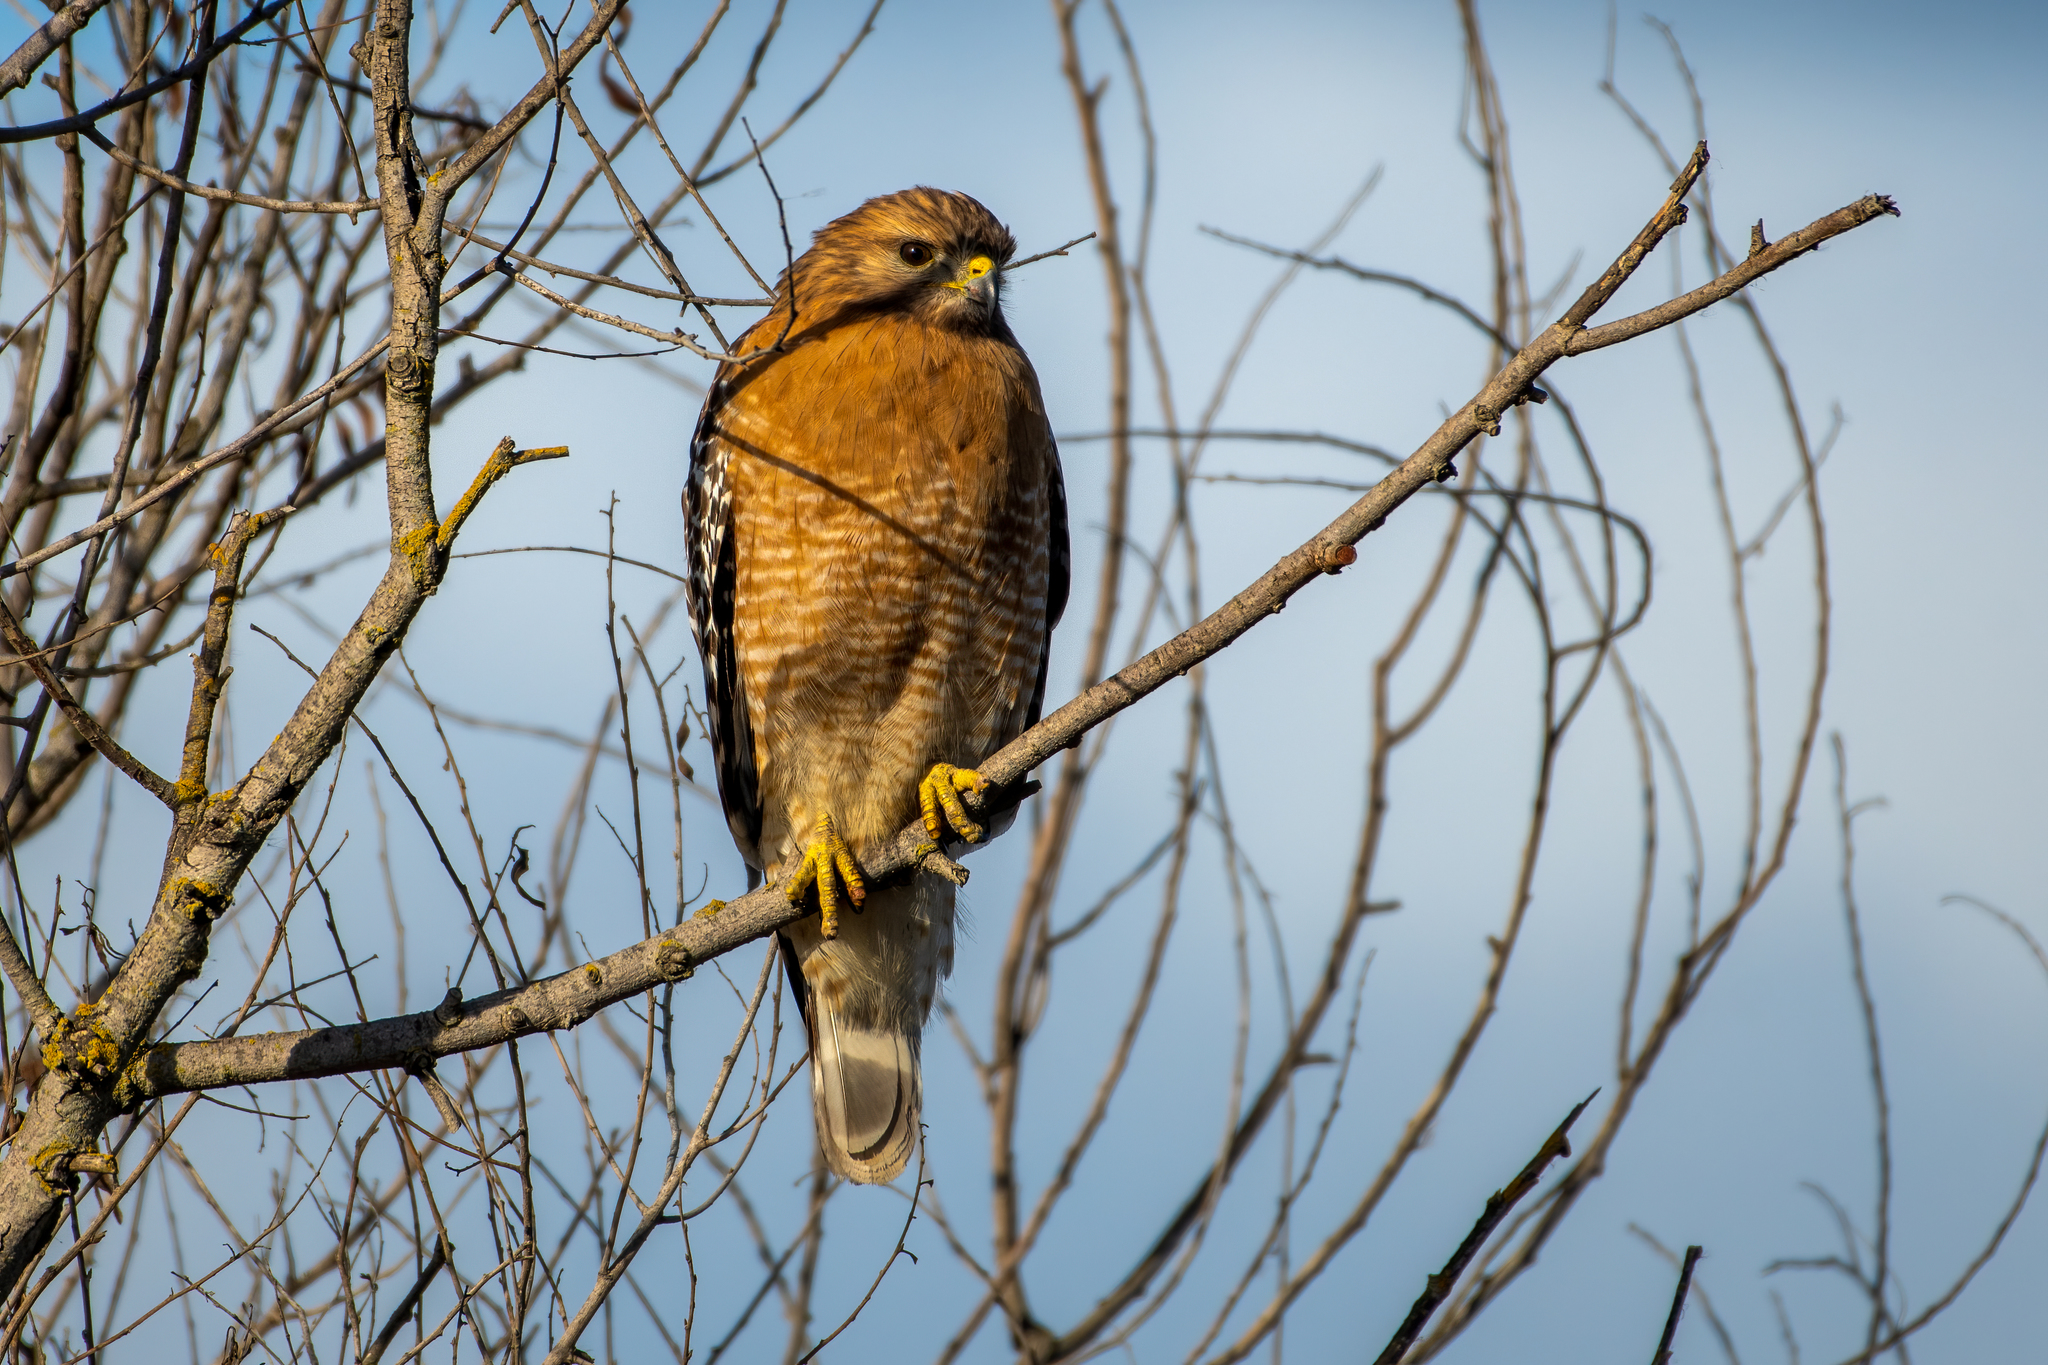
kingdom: Animalia
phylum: Chordata
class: Aves
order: Accipitriformes
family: Accipitridae
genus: Buteo
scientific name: Buteo lineatus
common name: Red-shouldered hawk
